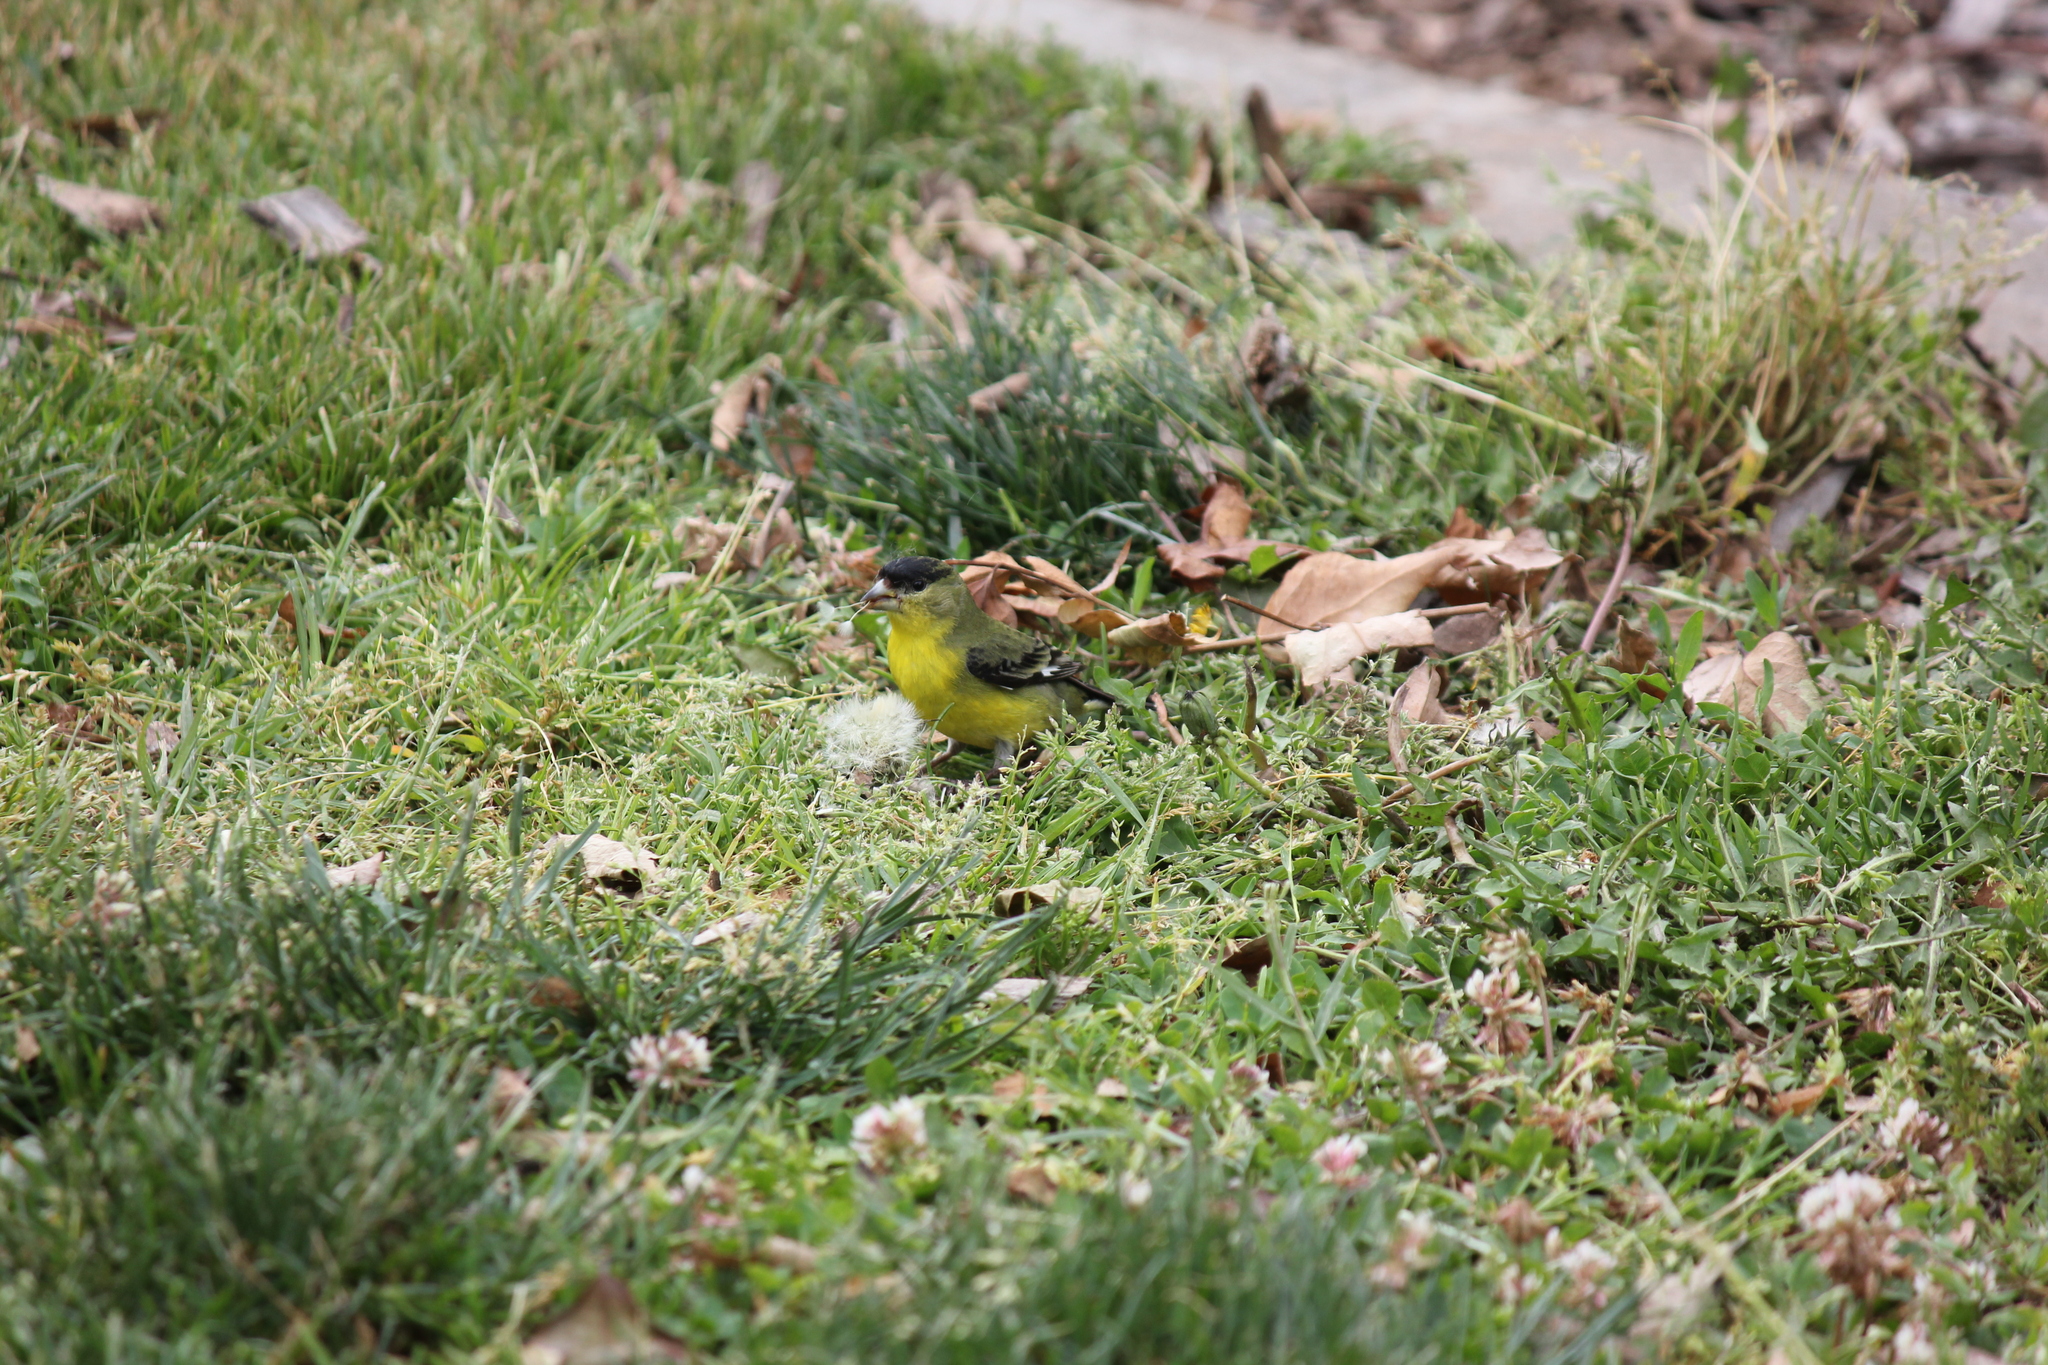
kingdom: Animalia
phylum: Chordata
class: Aves
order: Passeriformes
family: Fringillidae
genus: Spinus
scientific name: Spinus psaltria
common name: Lesser goldfinch
